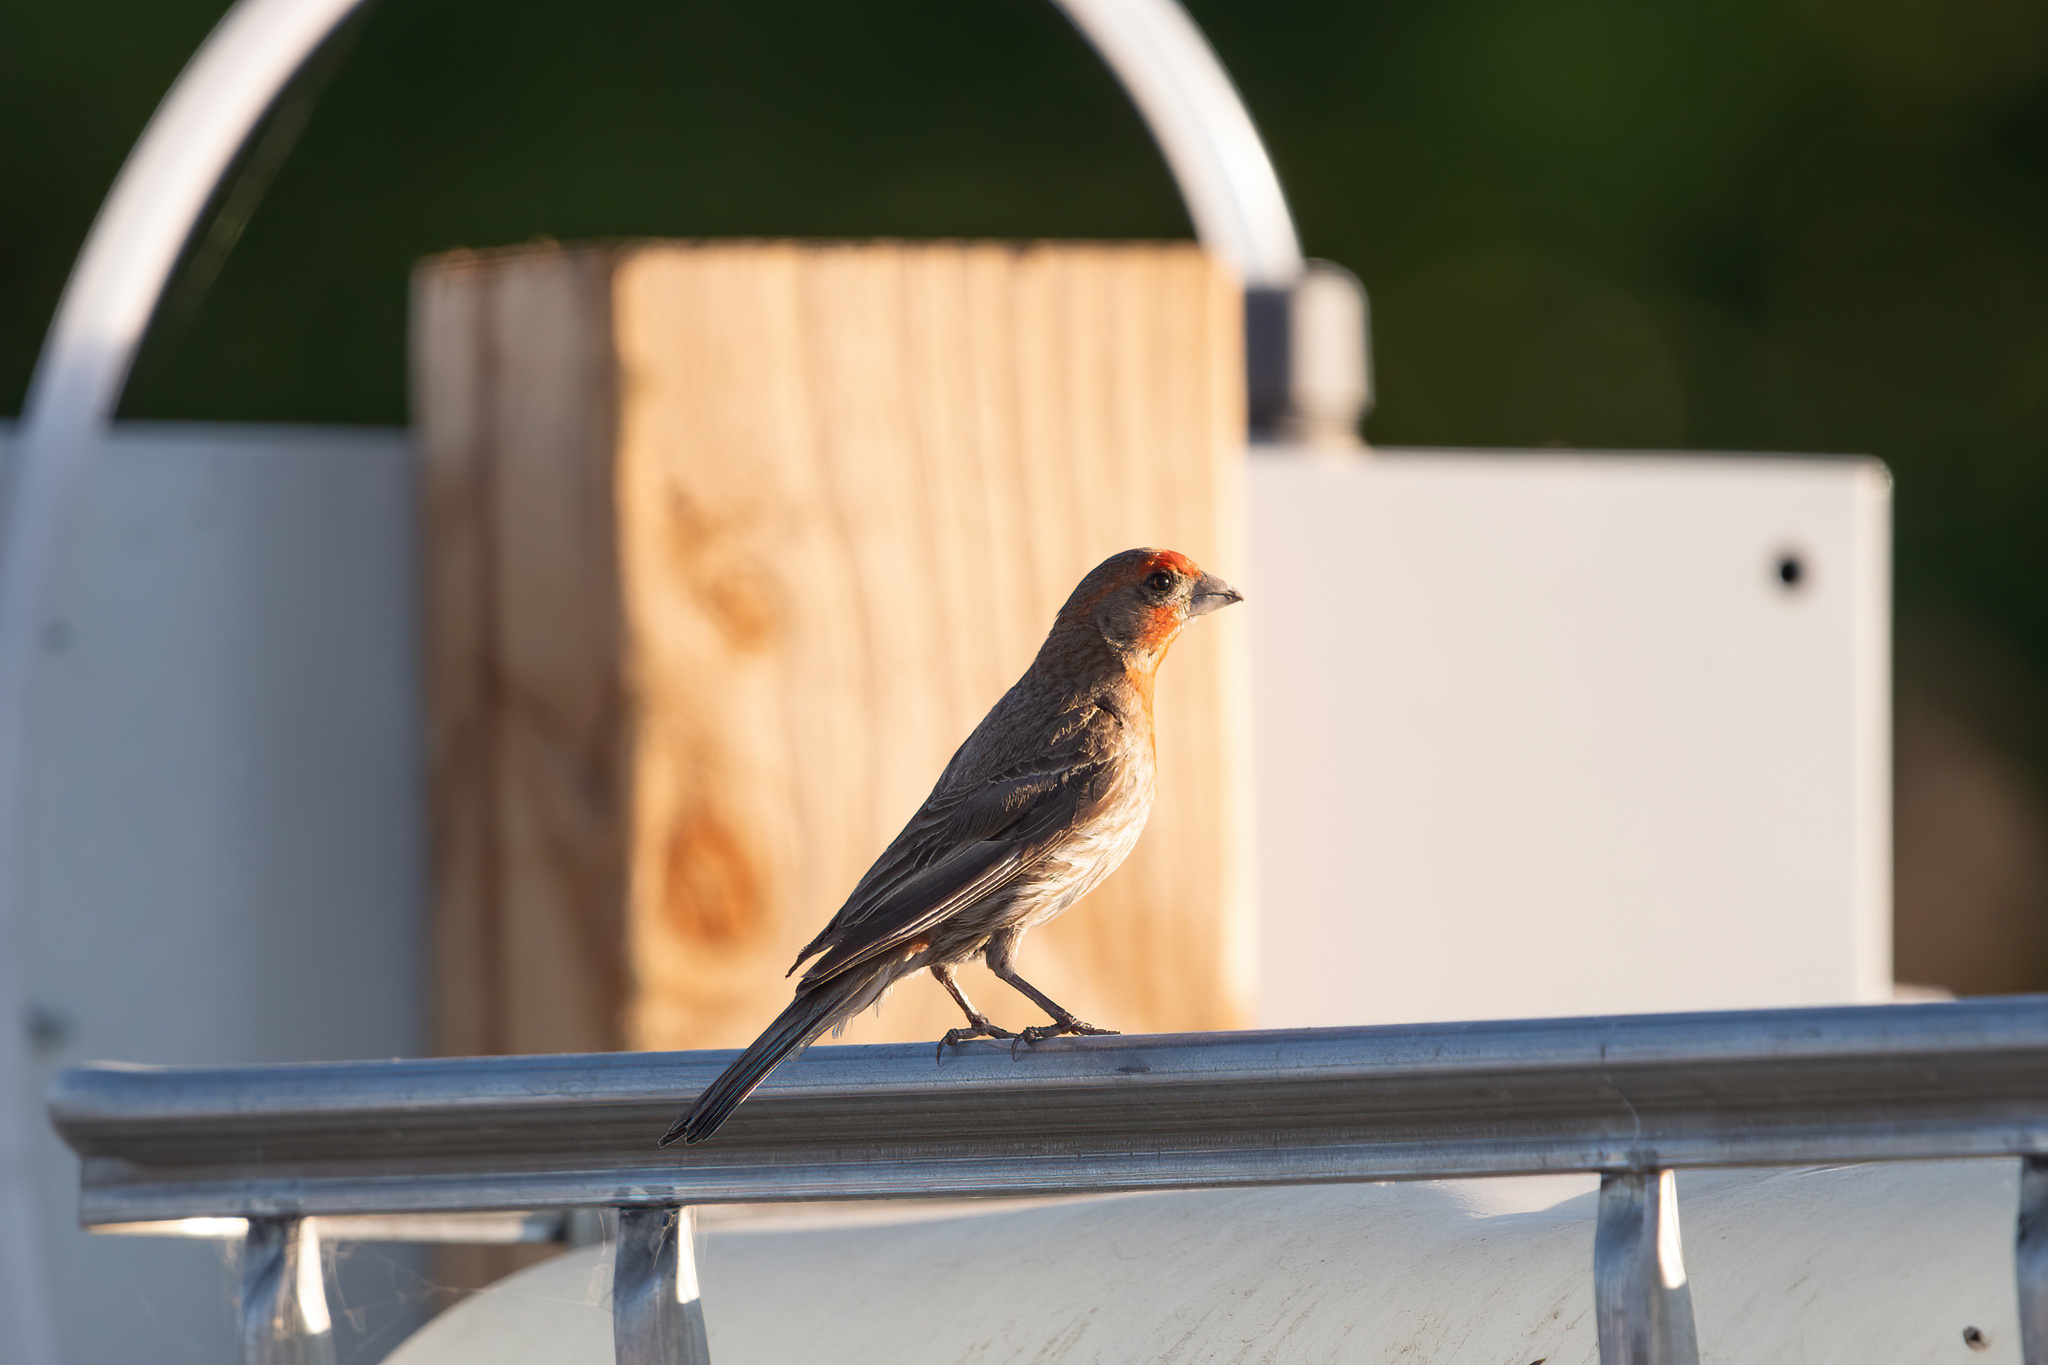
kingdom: Animalia
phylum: Chordata
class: Aves
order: Passeriformes
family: Fringillidae
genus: Haemorhous
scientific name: Haemorhous mexicanus
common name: House finch
